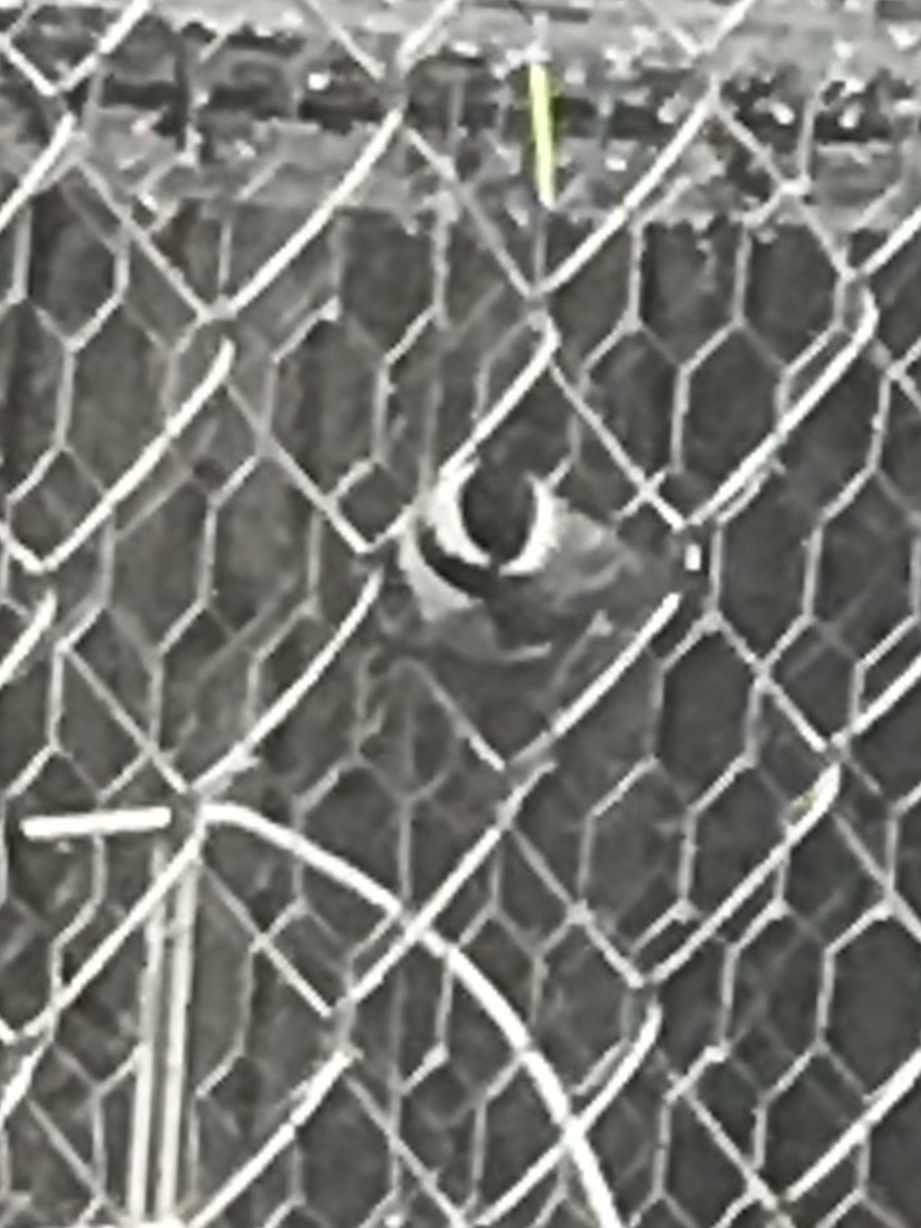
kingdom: Animalia
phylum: Chordata
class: Aves
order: Passeriformes
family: Paridae
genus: Poecile
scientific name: Poecile carolinensis
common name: Carolina chickadee
